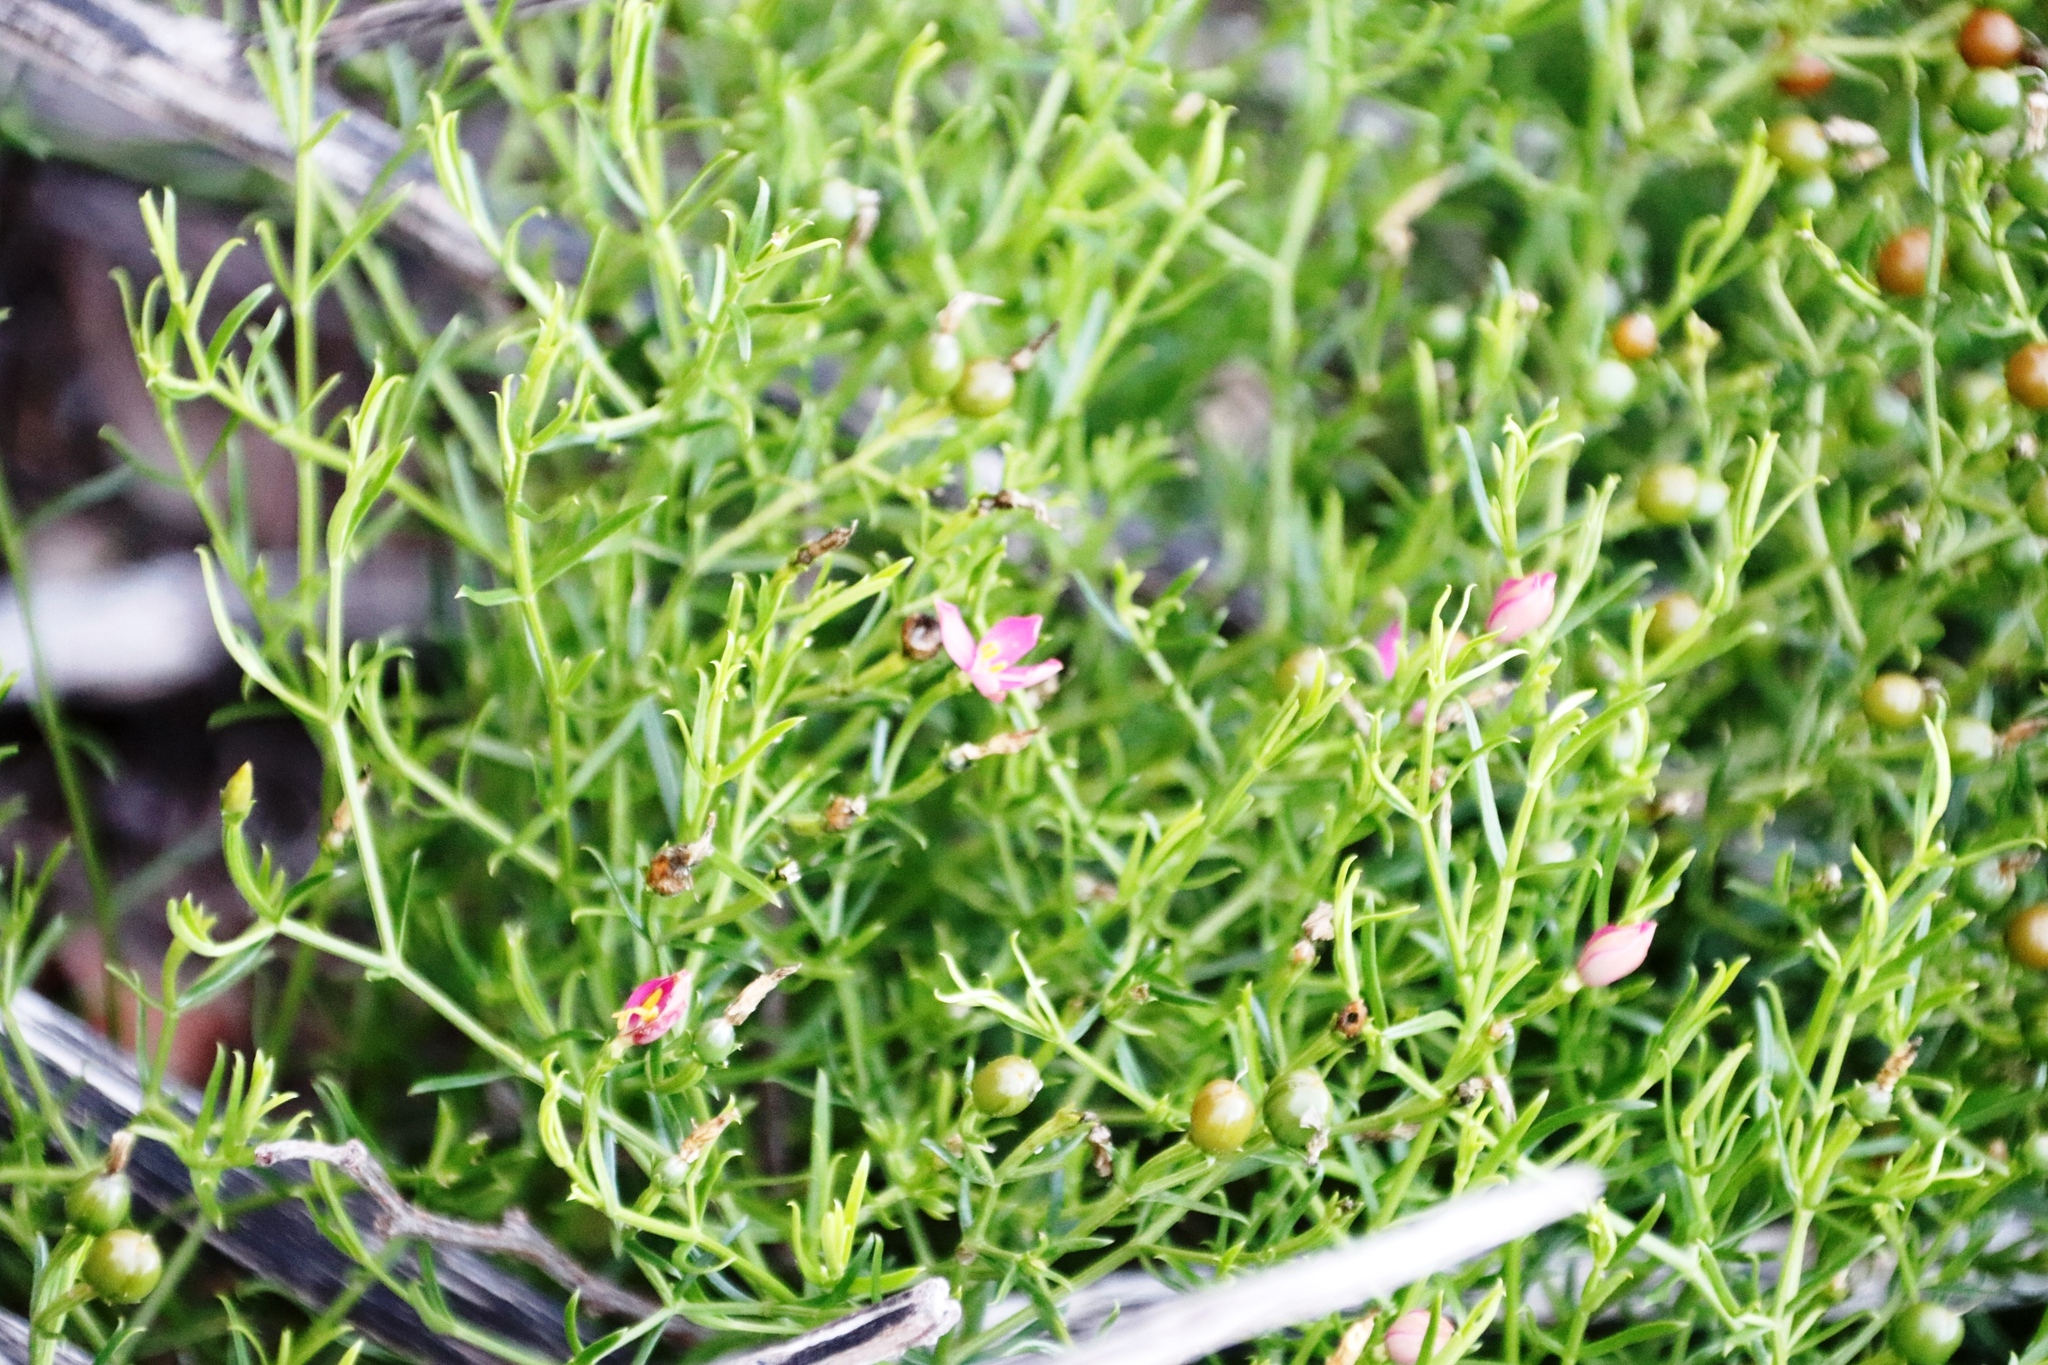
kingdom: Plantae
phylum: Tracheophyta
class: Magnoliopsida
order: Gentianales
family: Gentianaceae
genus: Chironia
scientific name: Chironia baccifera
